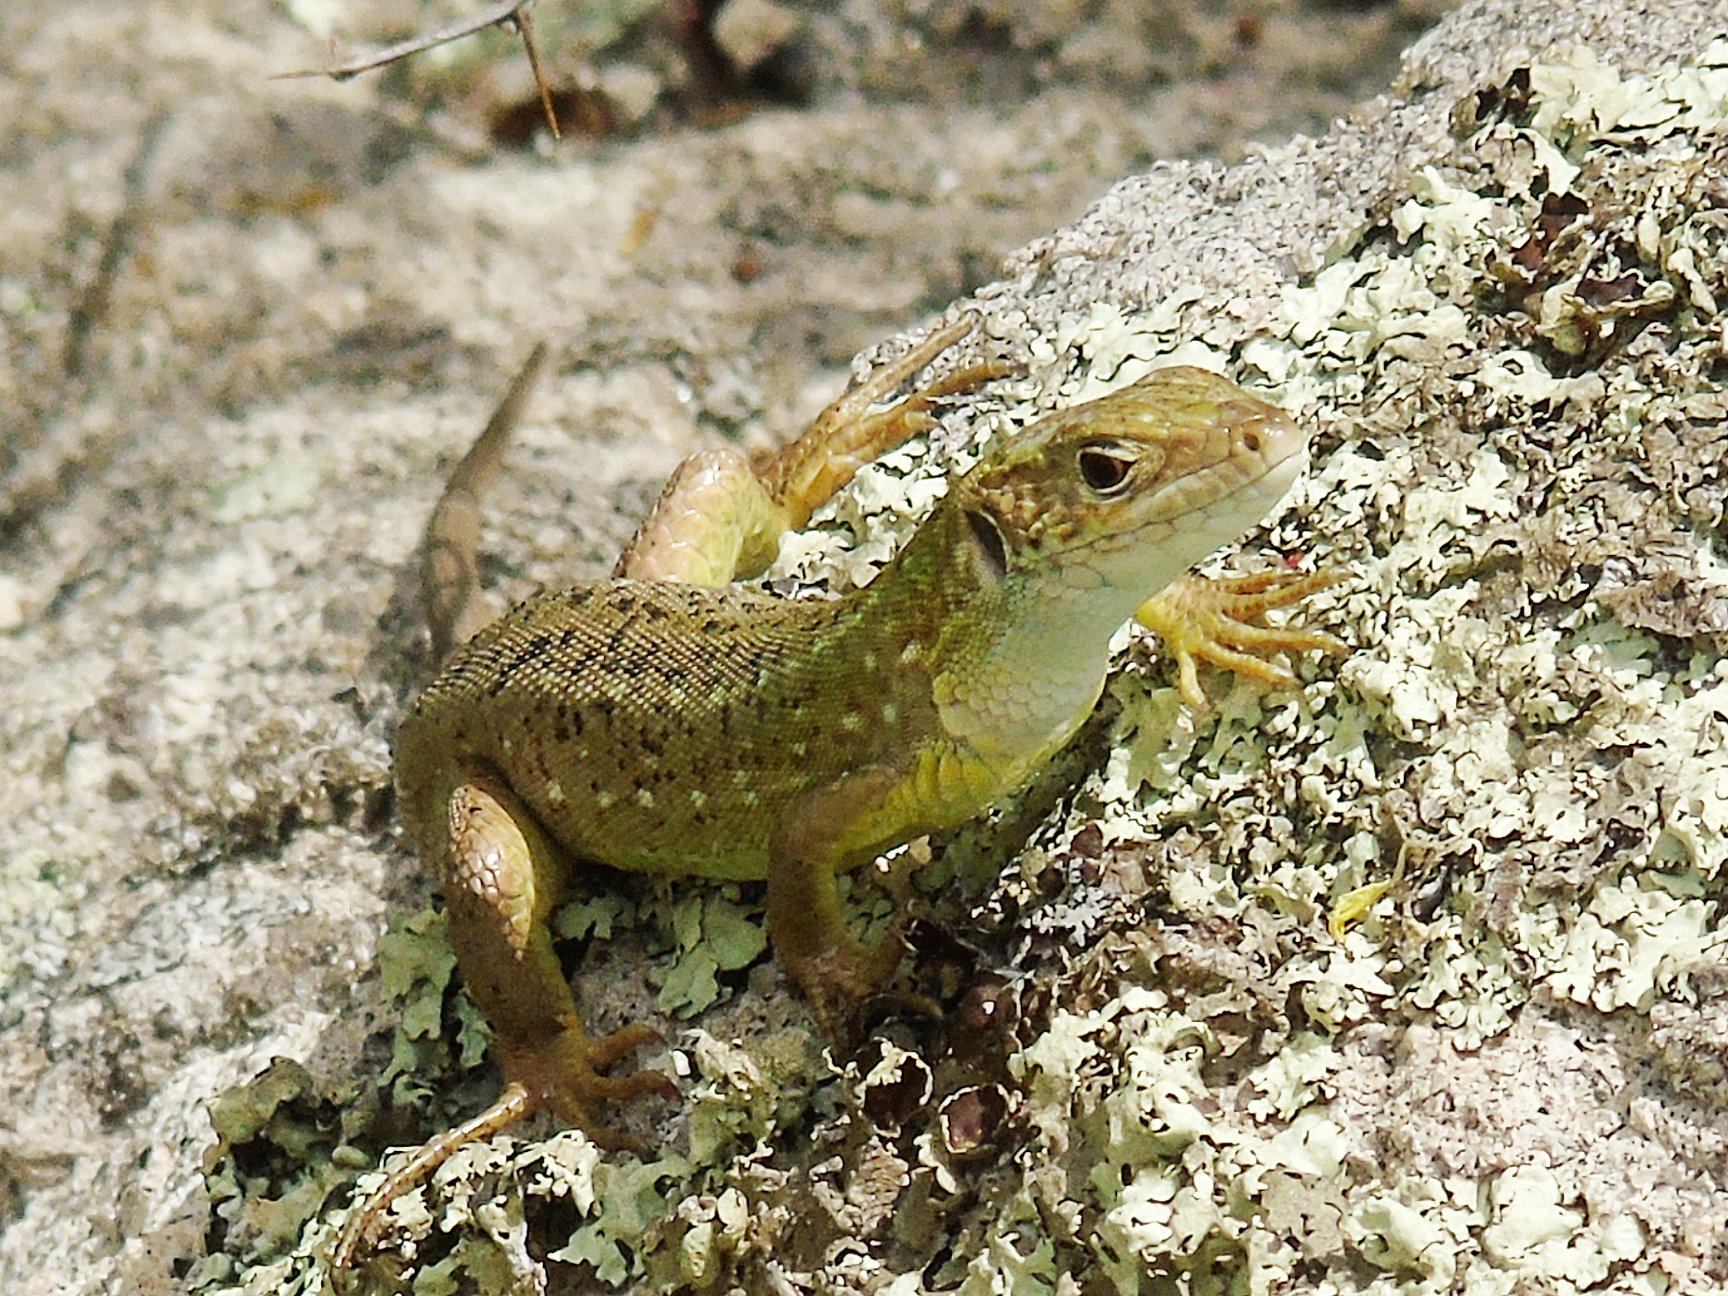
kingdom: Animalia
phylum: Chordata
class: Squamata
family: Lacertidae
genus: Lacerta
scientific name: Lacerta viridis
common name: European green lizard
